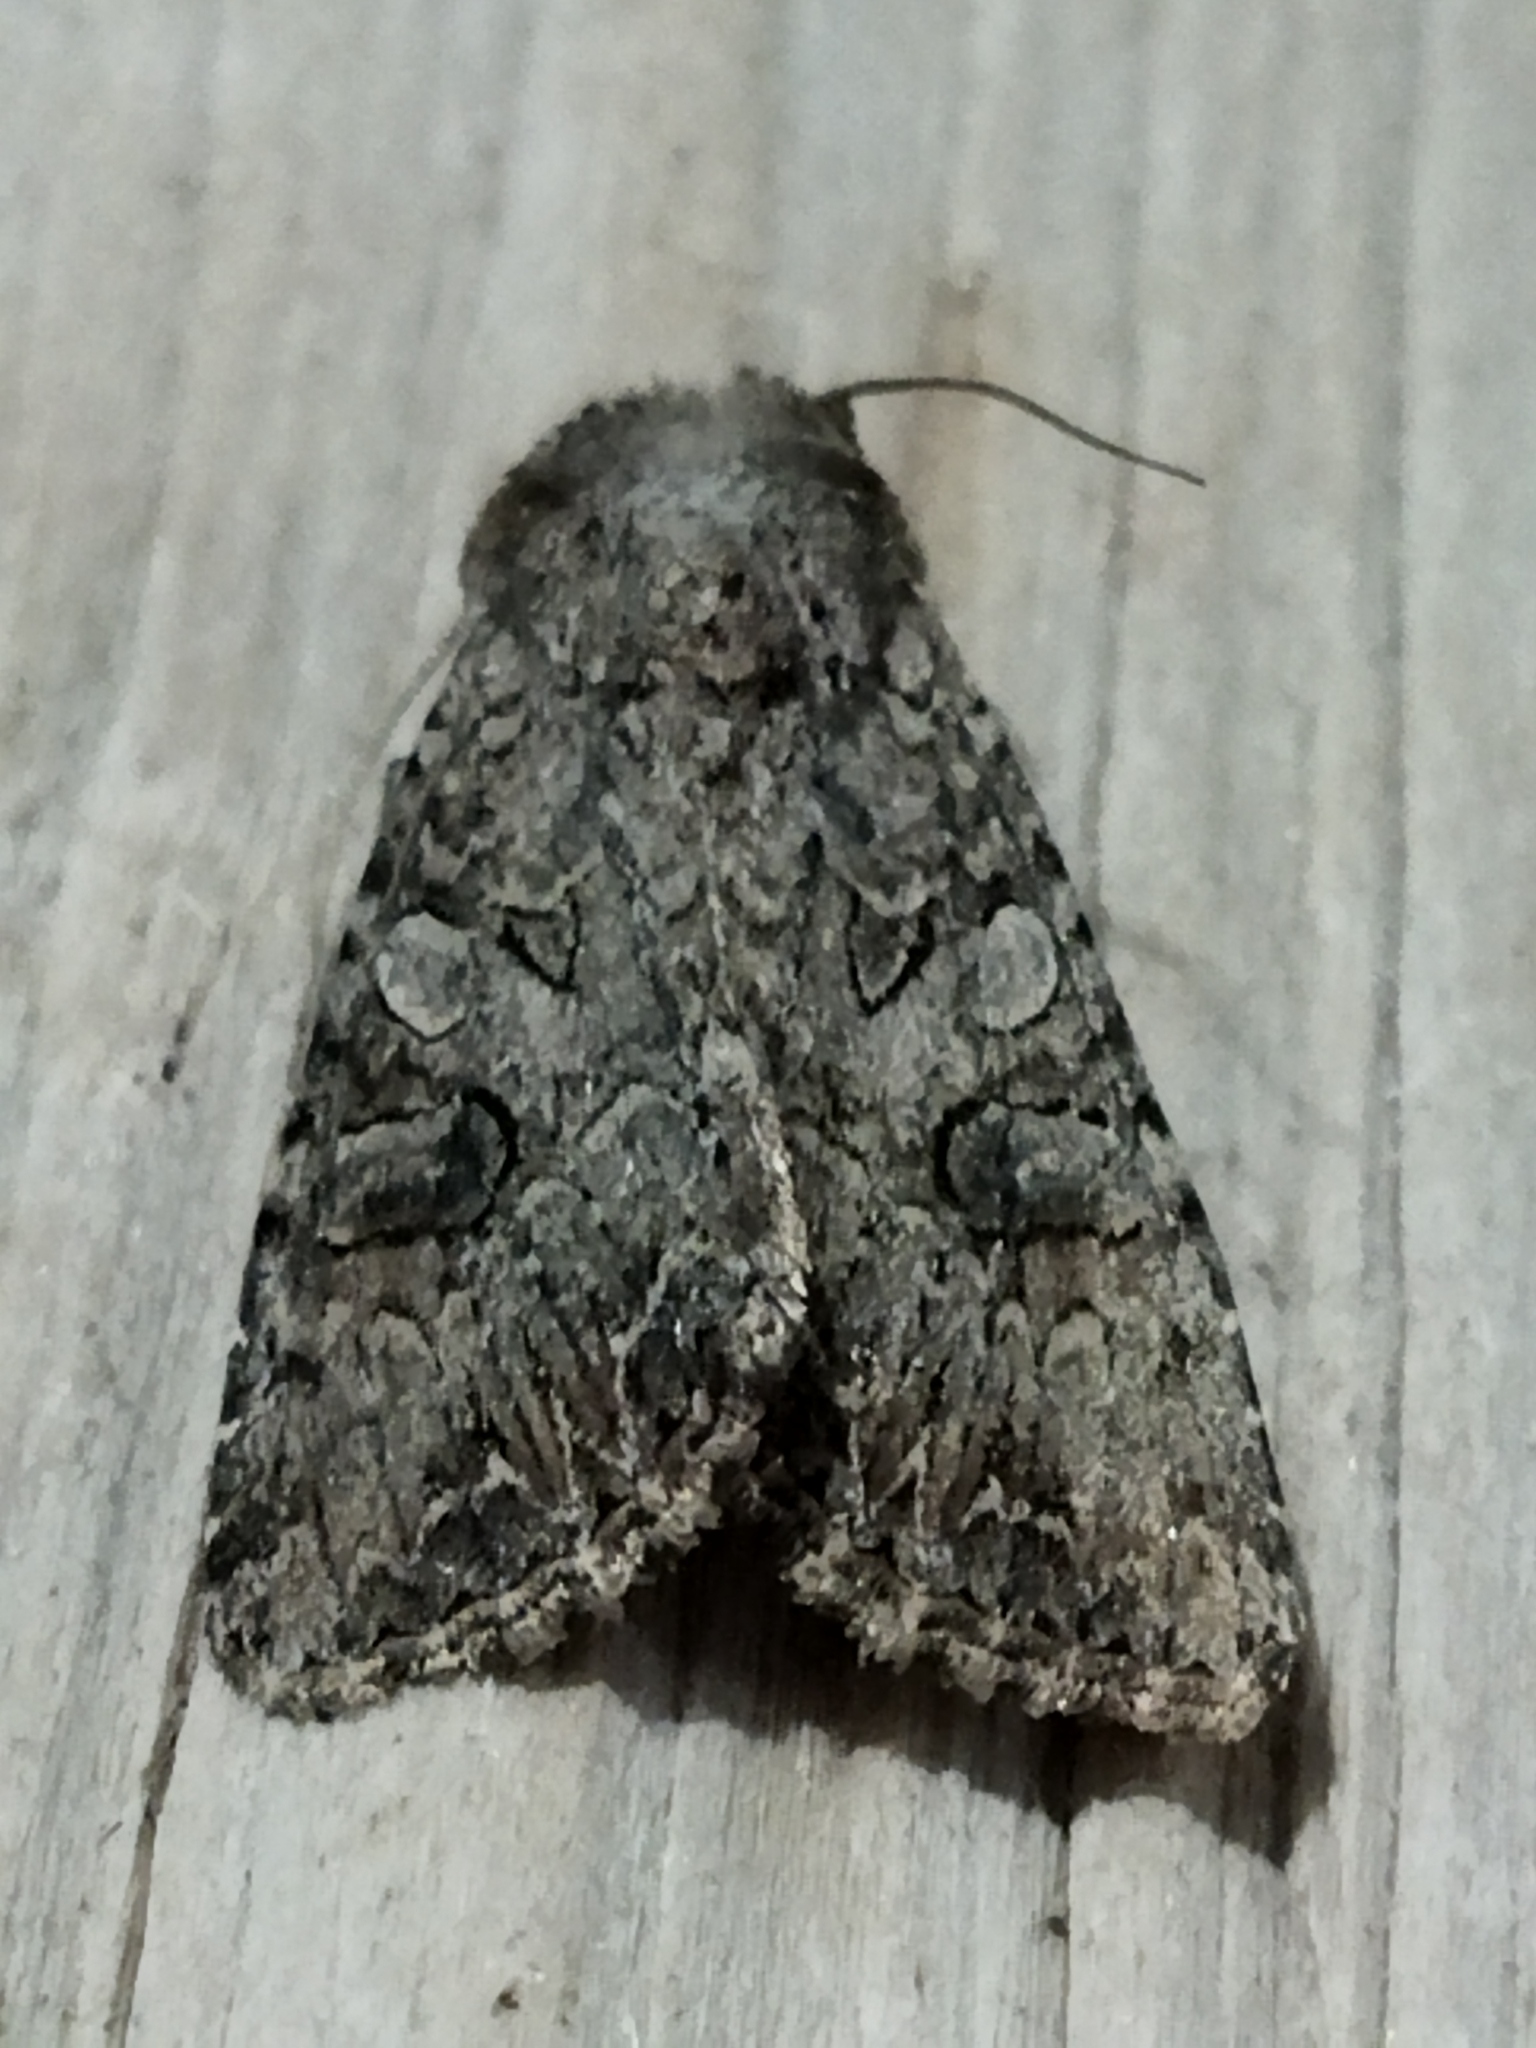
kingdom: Animalia
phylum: Arthropoda
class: Insecta
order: Lepidoptera
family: Noctuidae
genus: Anarta
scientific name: Anarta trifolii
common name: Clover cutworm moth
